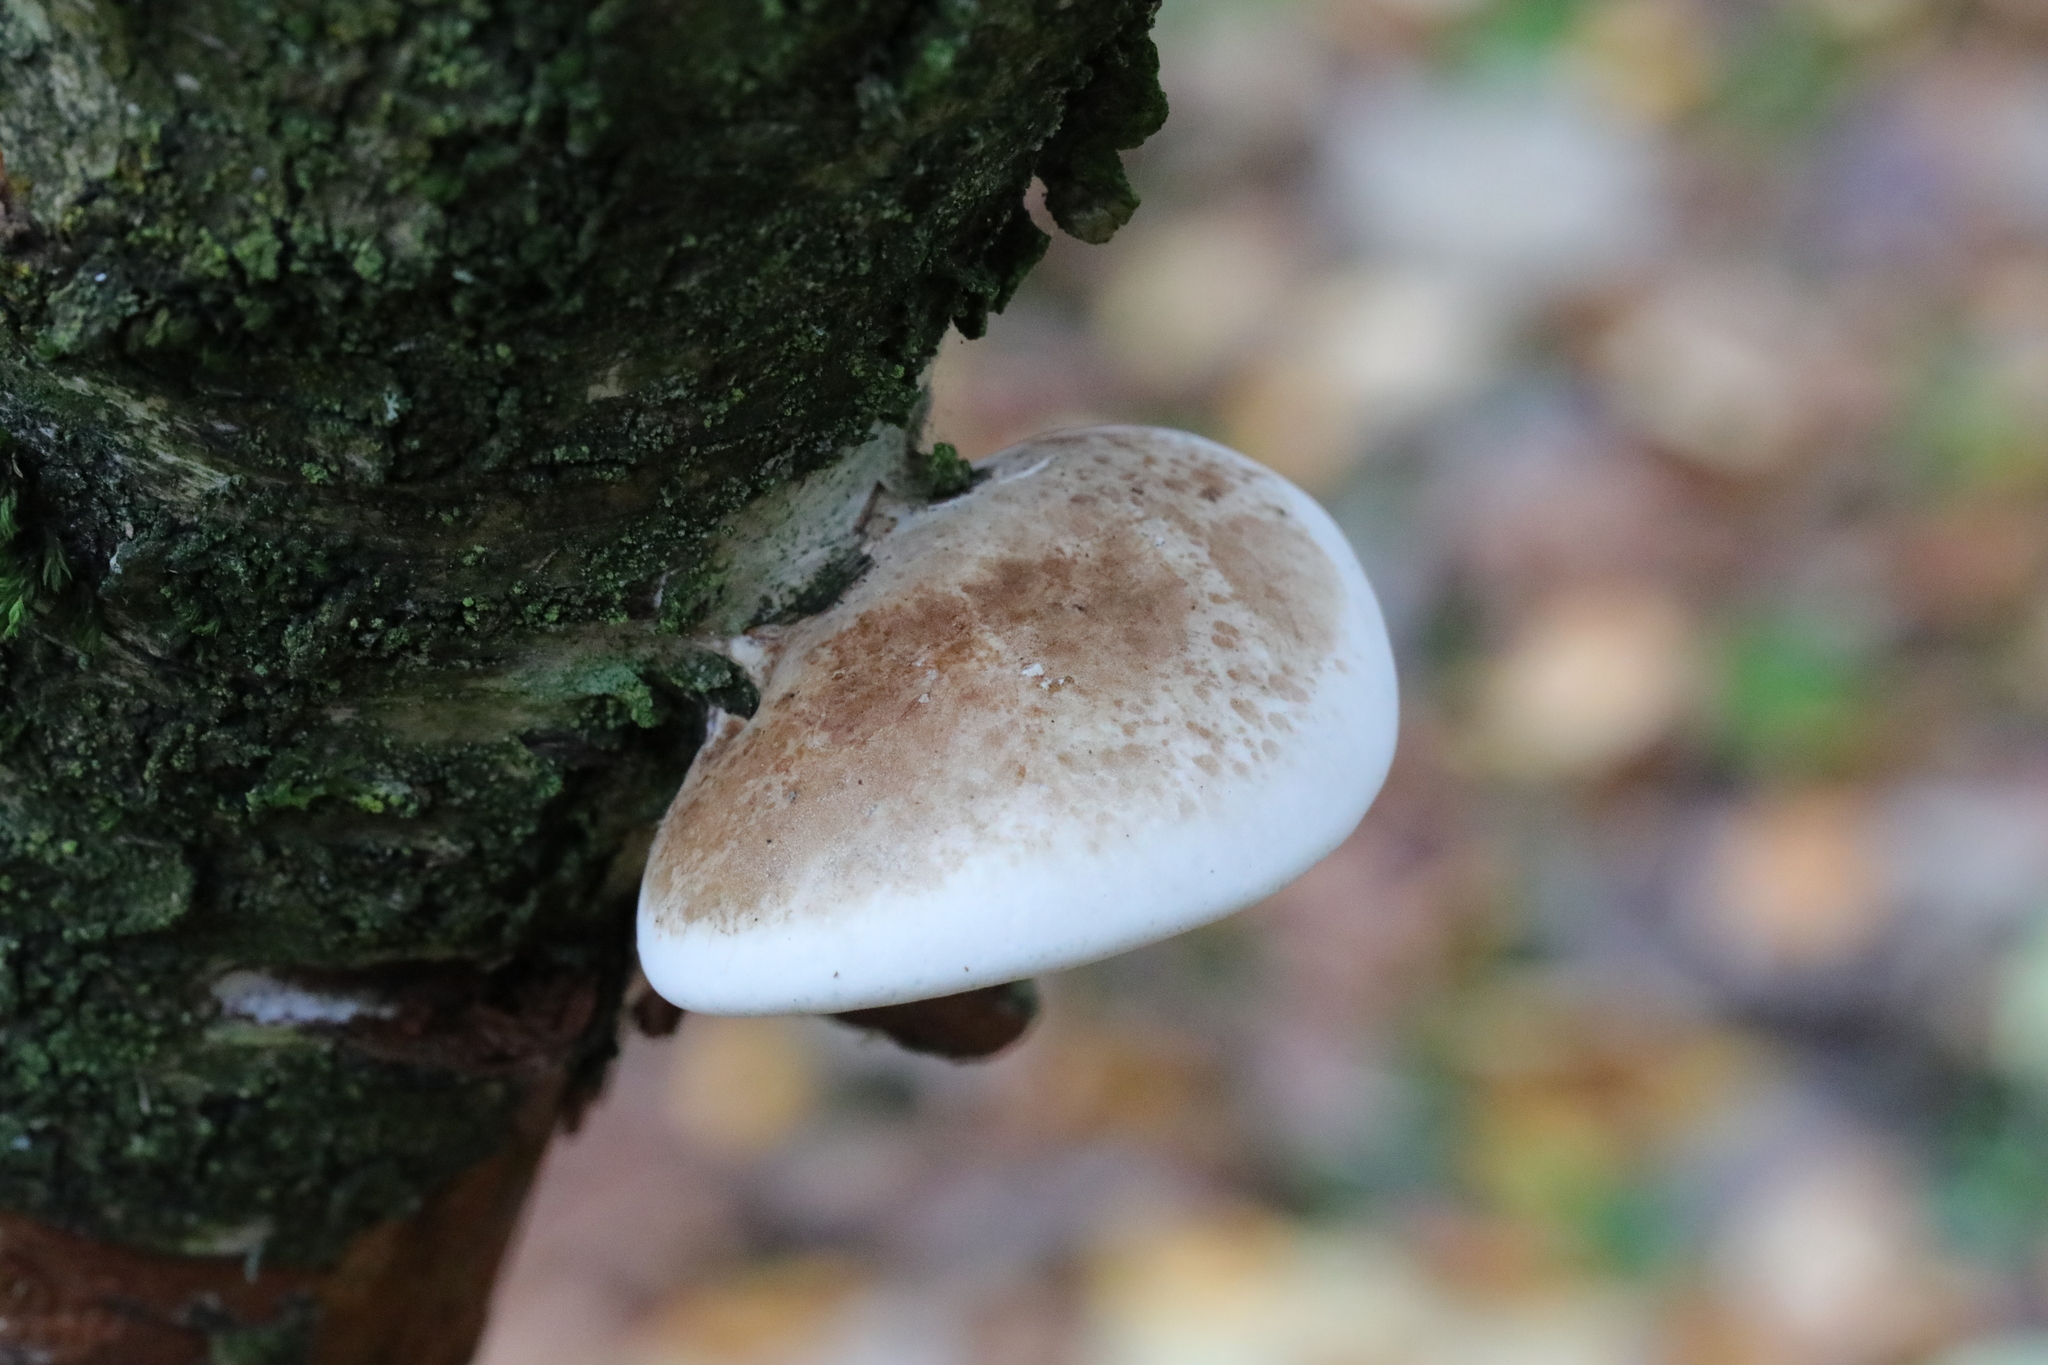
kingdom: Fungi
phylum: Basidiomycota
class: Agaricomycetes
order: Polyporales
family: Fomitopsidaceae
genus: Fomitopsis
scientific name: Fomitopsis betulina
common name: Birch polypore
